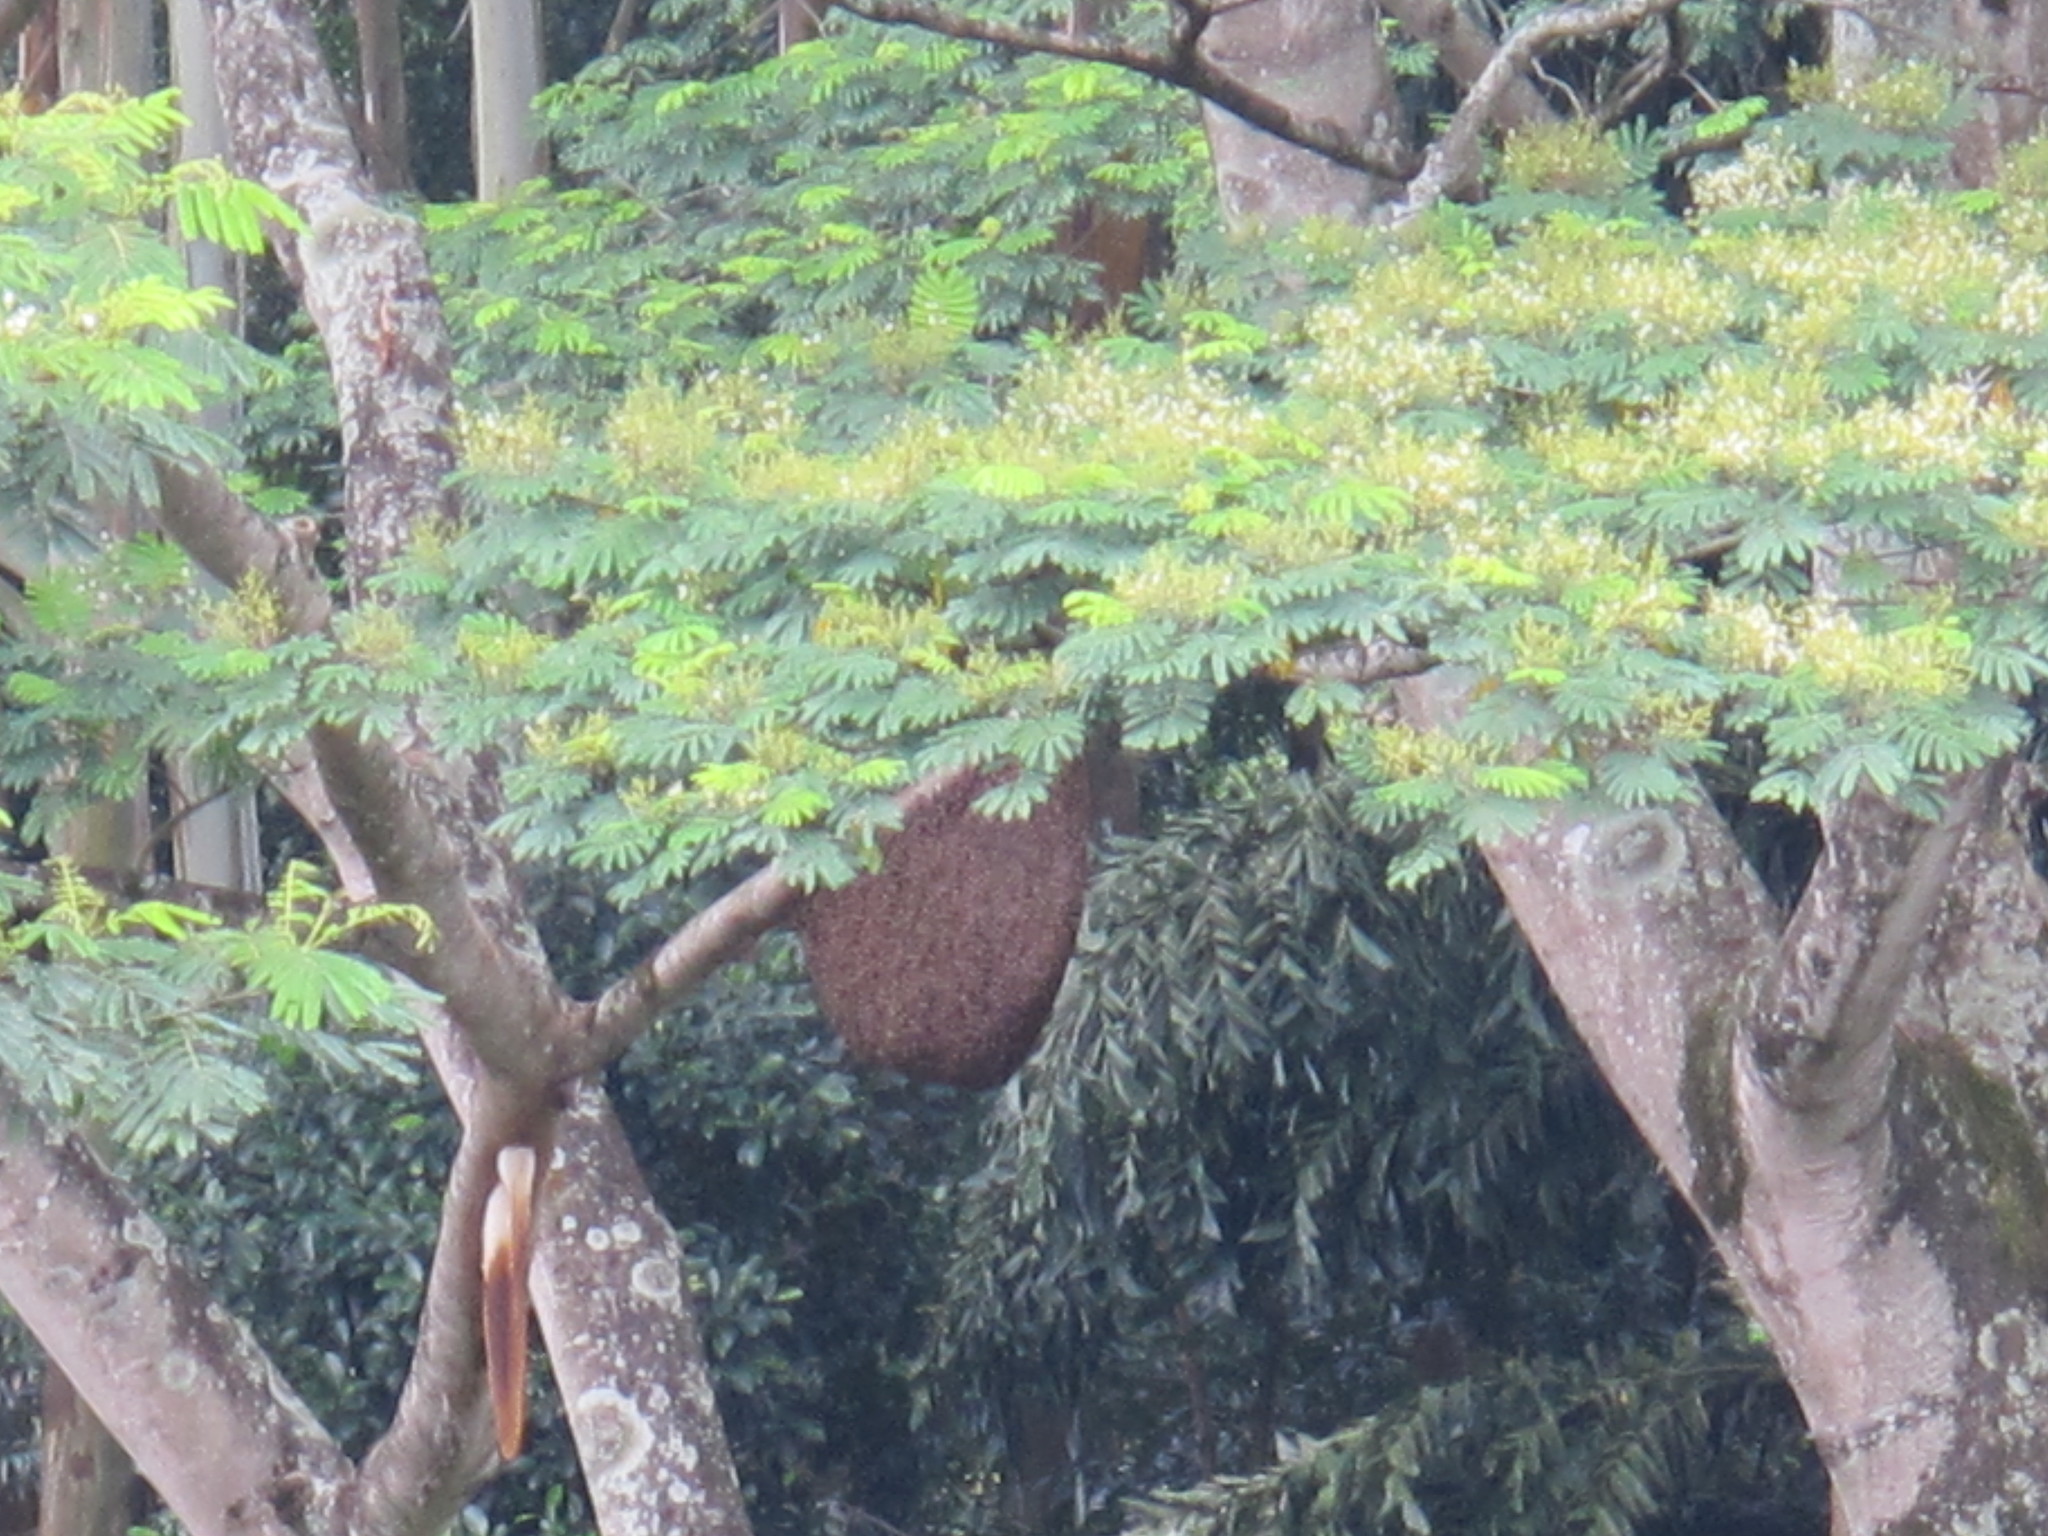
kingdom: Animalia
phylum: Arthropoda
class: Insecta
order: Hymenoptera
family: Apidae
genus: Apis
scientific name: Apis dorsata
